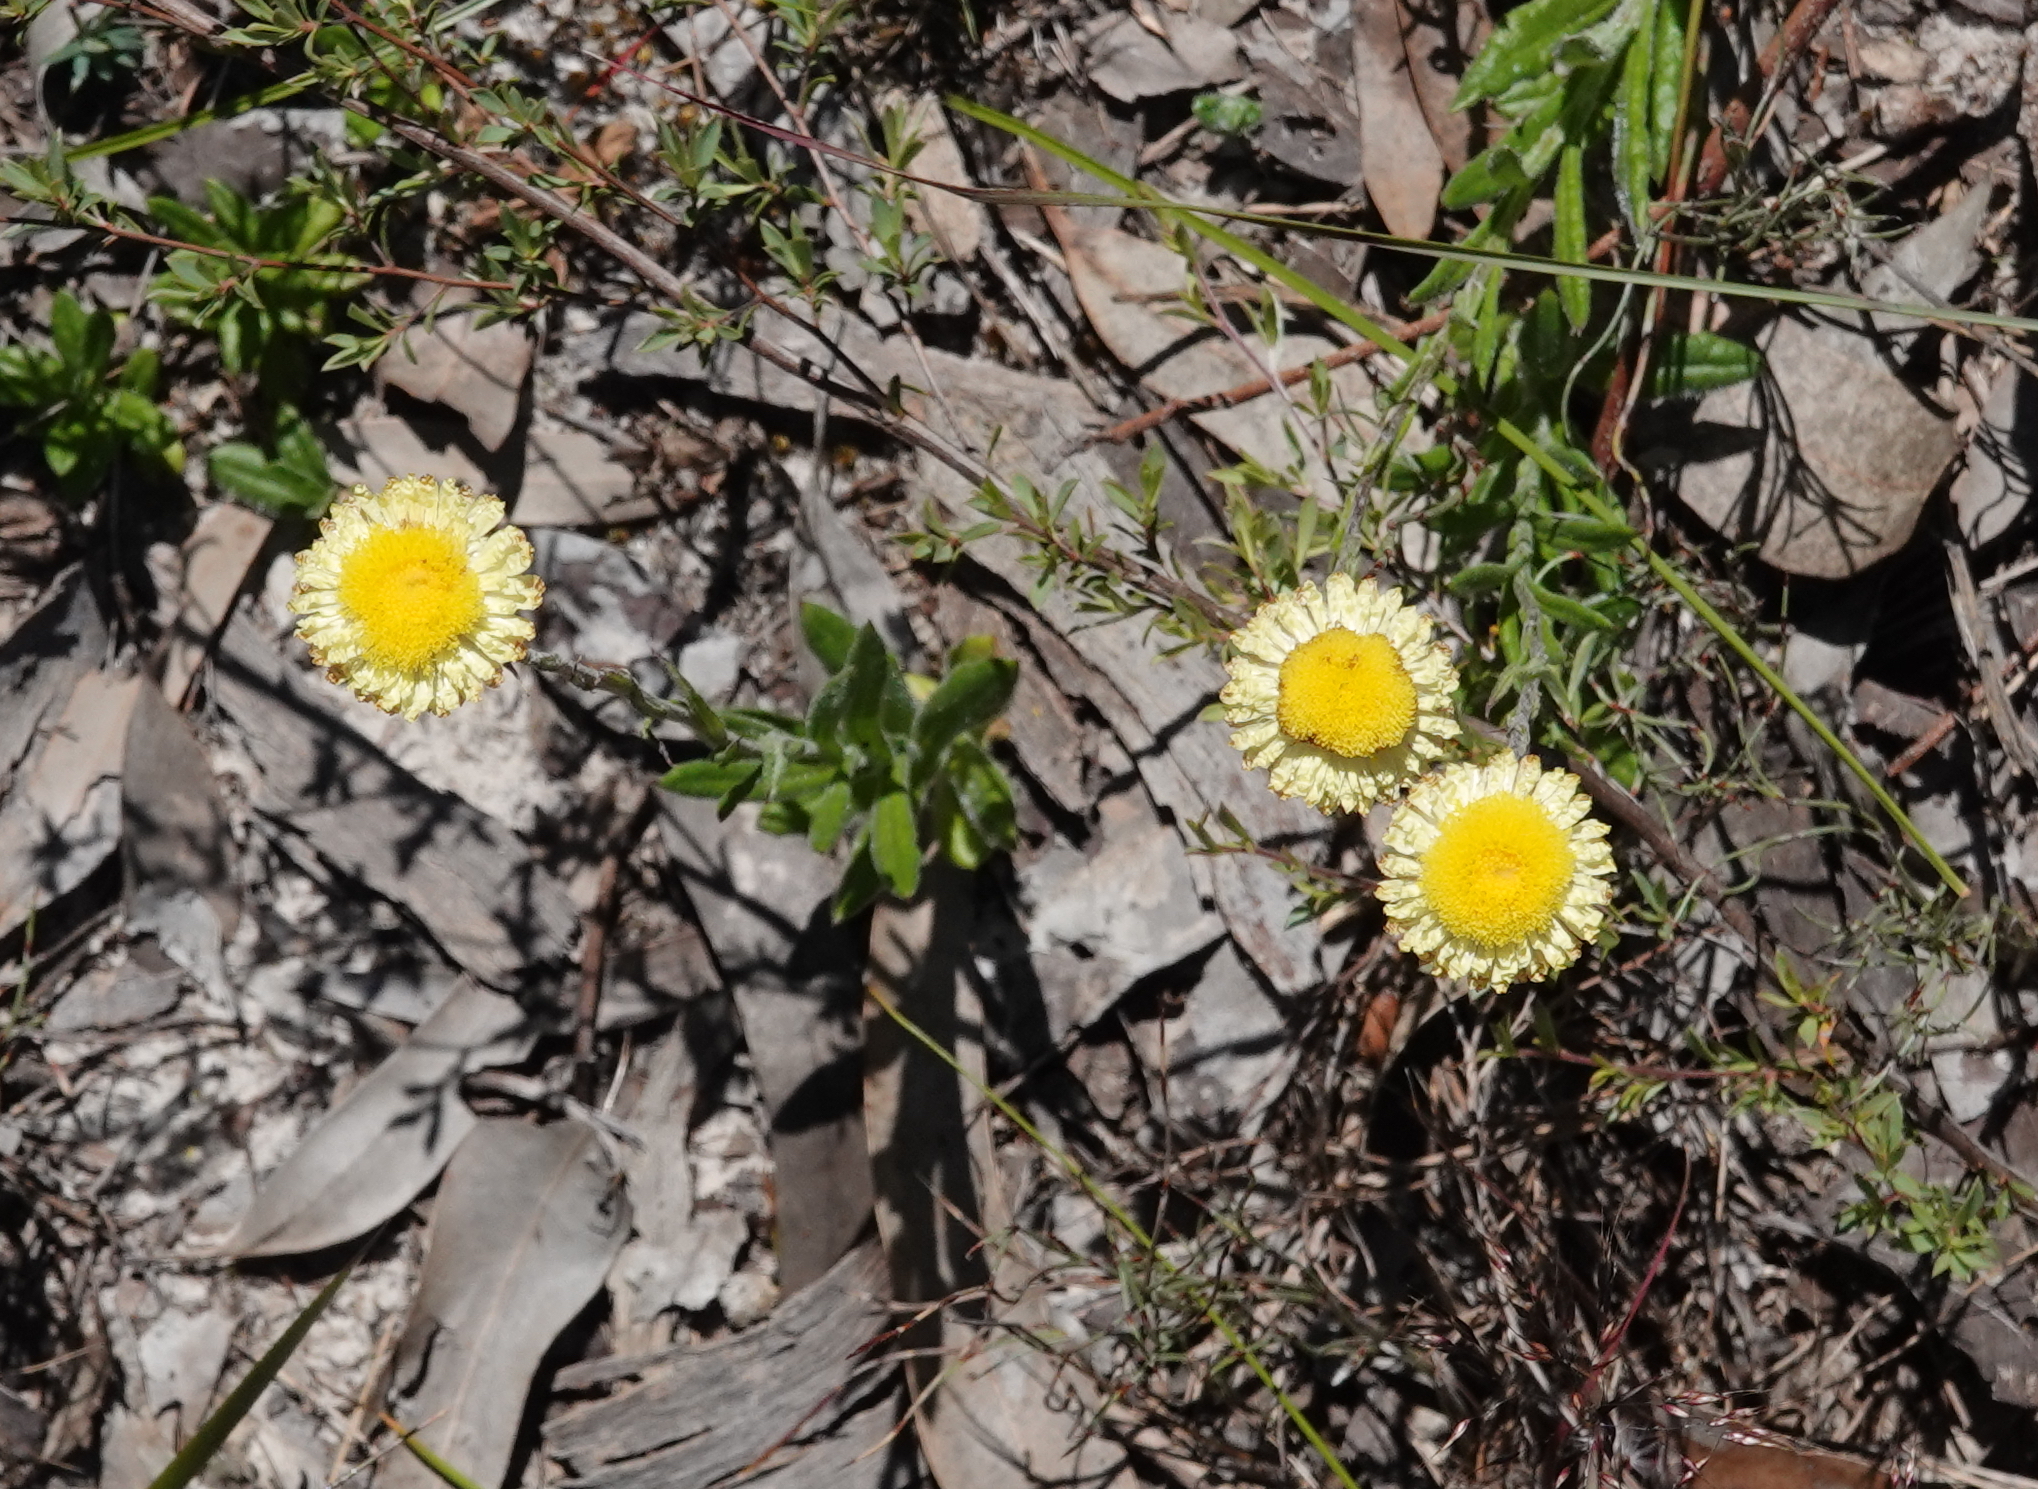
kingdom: Plantae
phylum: Tracheophyta
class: Magnoliopsida
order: Asterales
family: Asteraceae
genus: Coronidium
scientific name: Coronidium scorpioides
